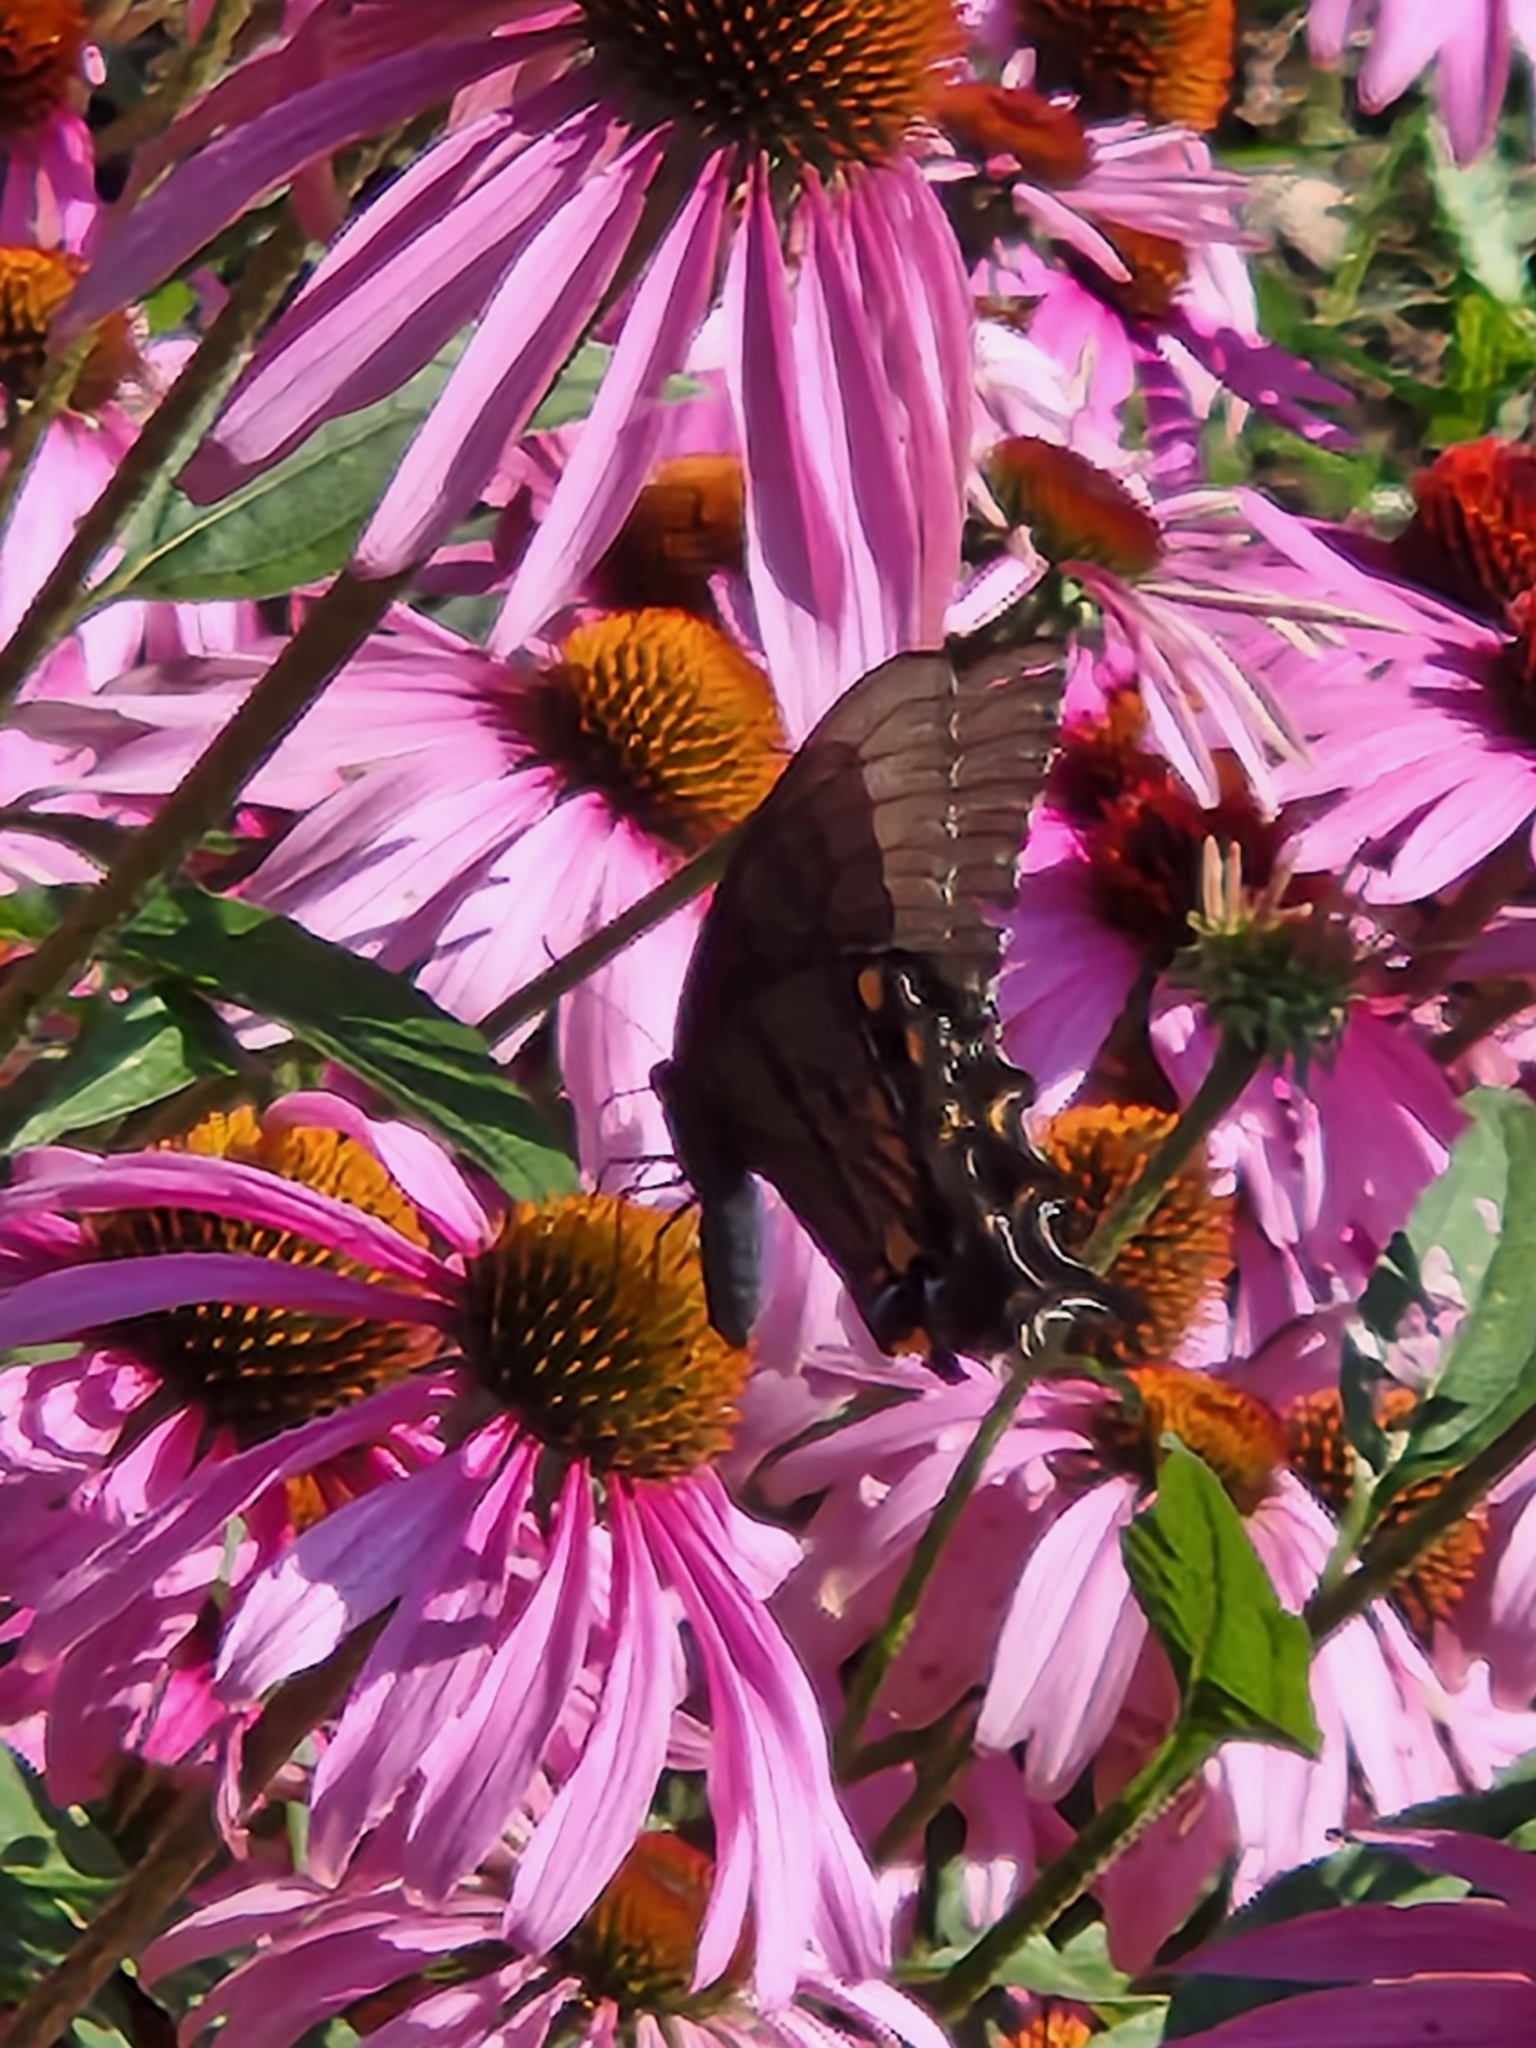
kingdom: Animalia
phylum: Arthropoda
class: Insecta
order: Lepidoptera
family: Papilionidae
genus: Papilio
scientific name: Papilio glaucus
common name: Tiger swallowtail
